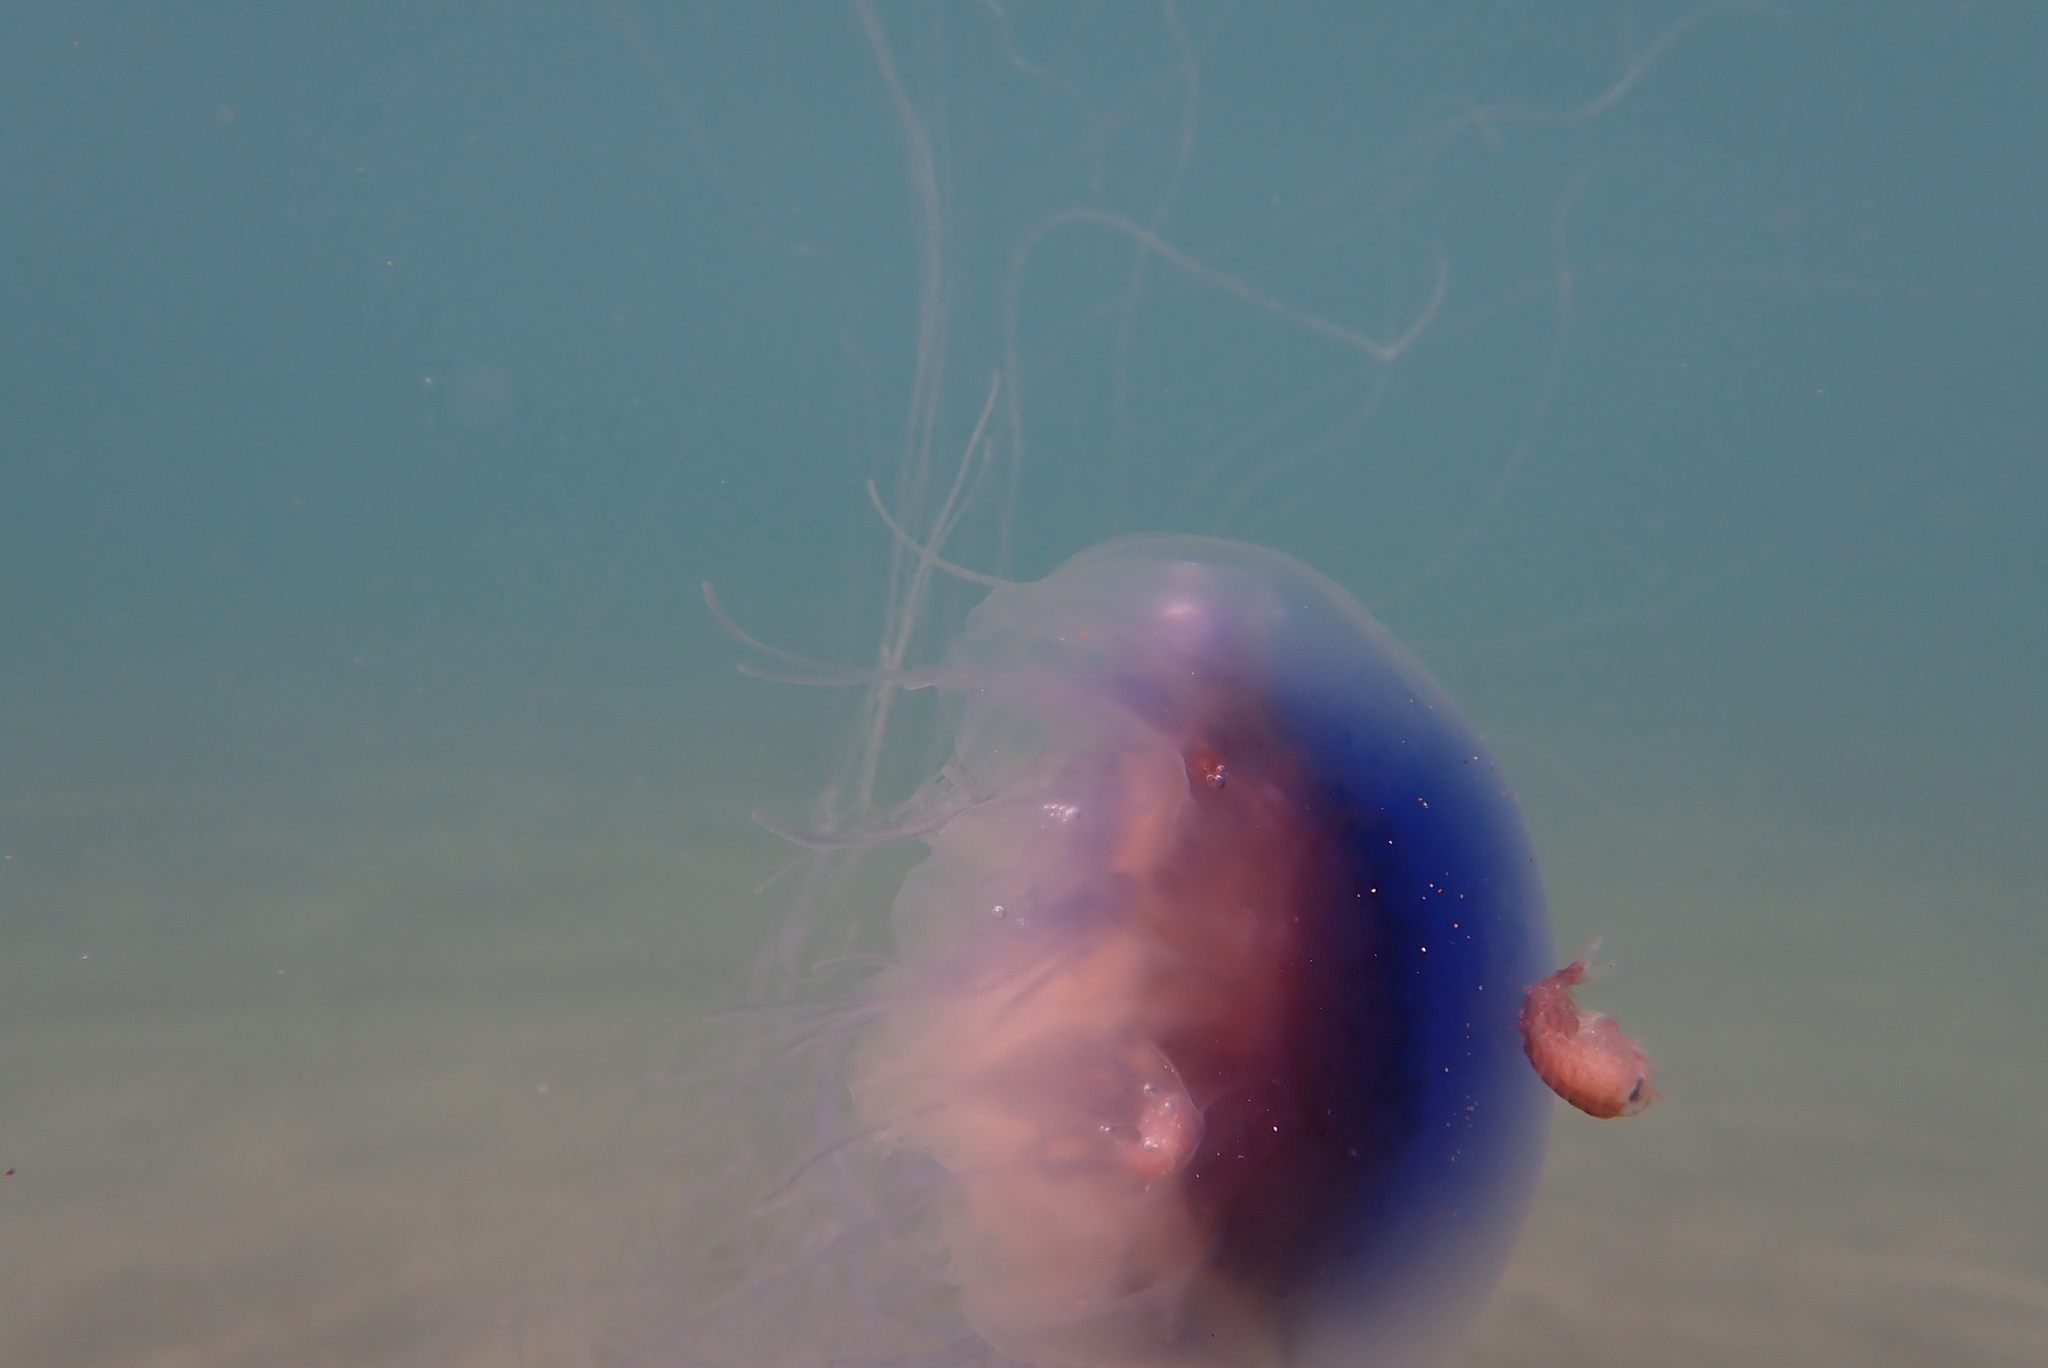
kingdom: Animalia
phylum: Cnidaria
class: Scyphozoa
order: Semaeostomeae
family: Cyaneidae
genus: Cyanea
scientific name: Cyanea lamarckii
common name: Blue jellyfish
